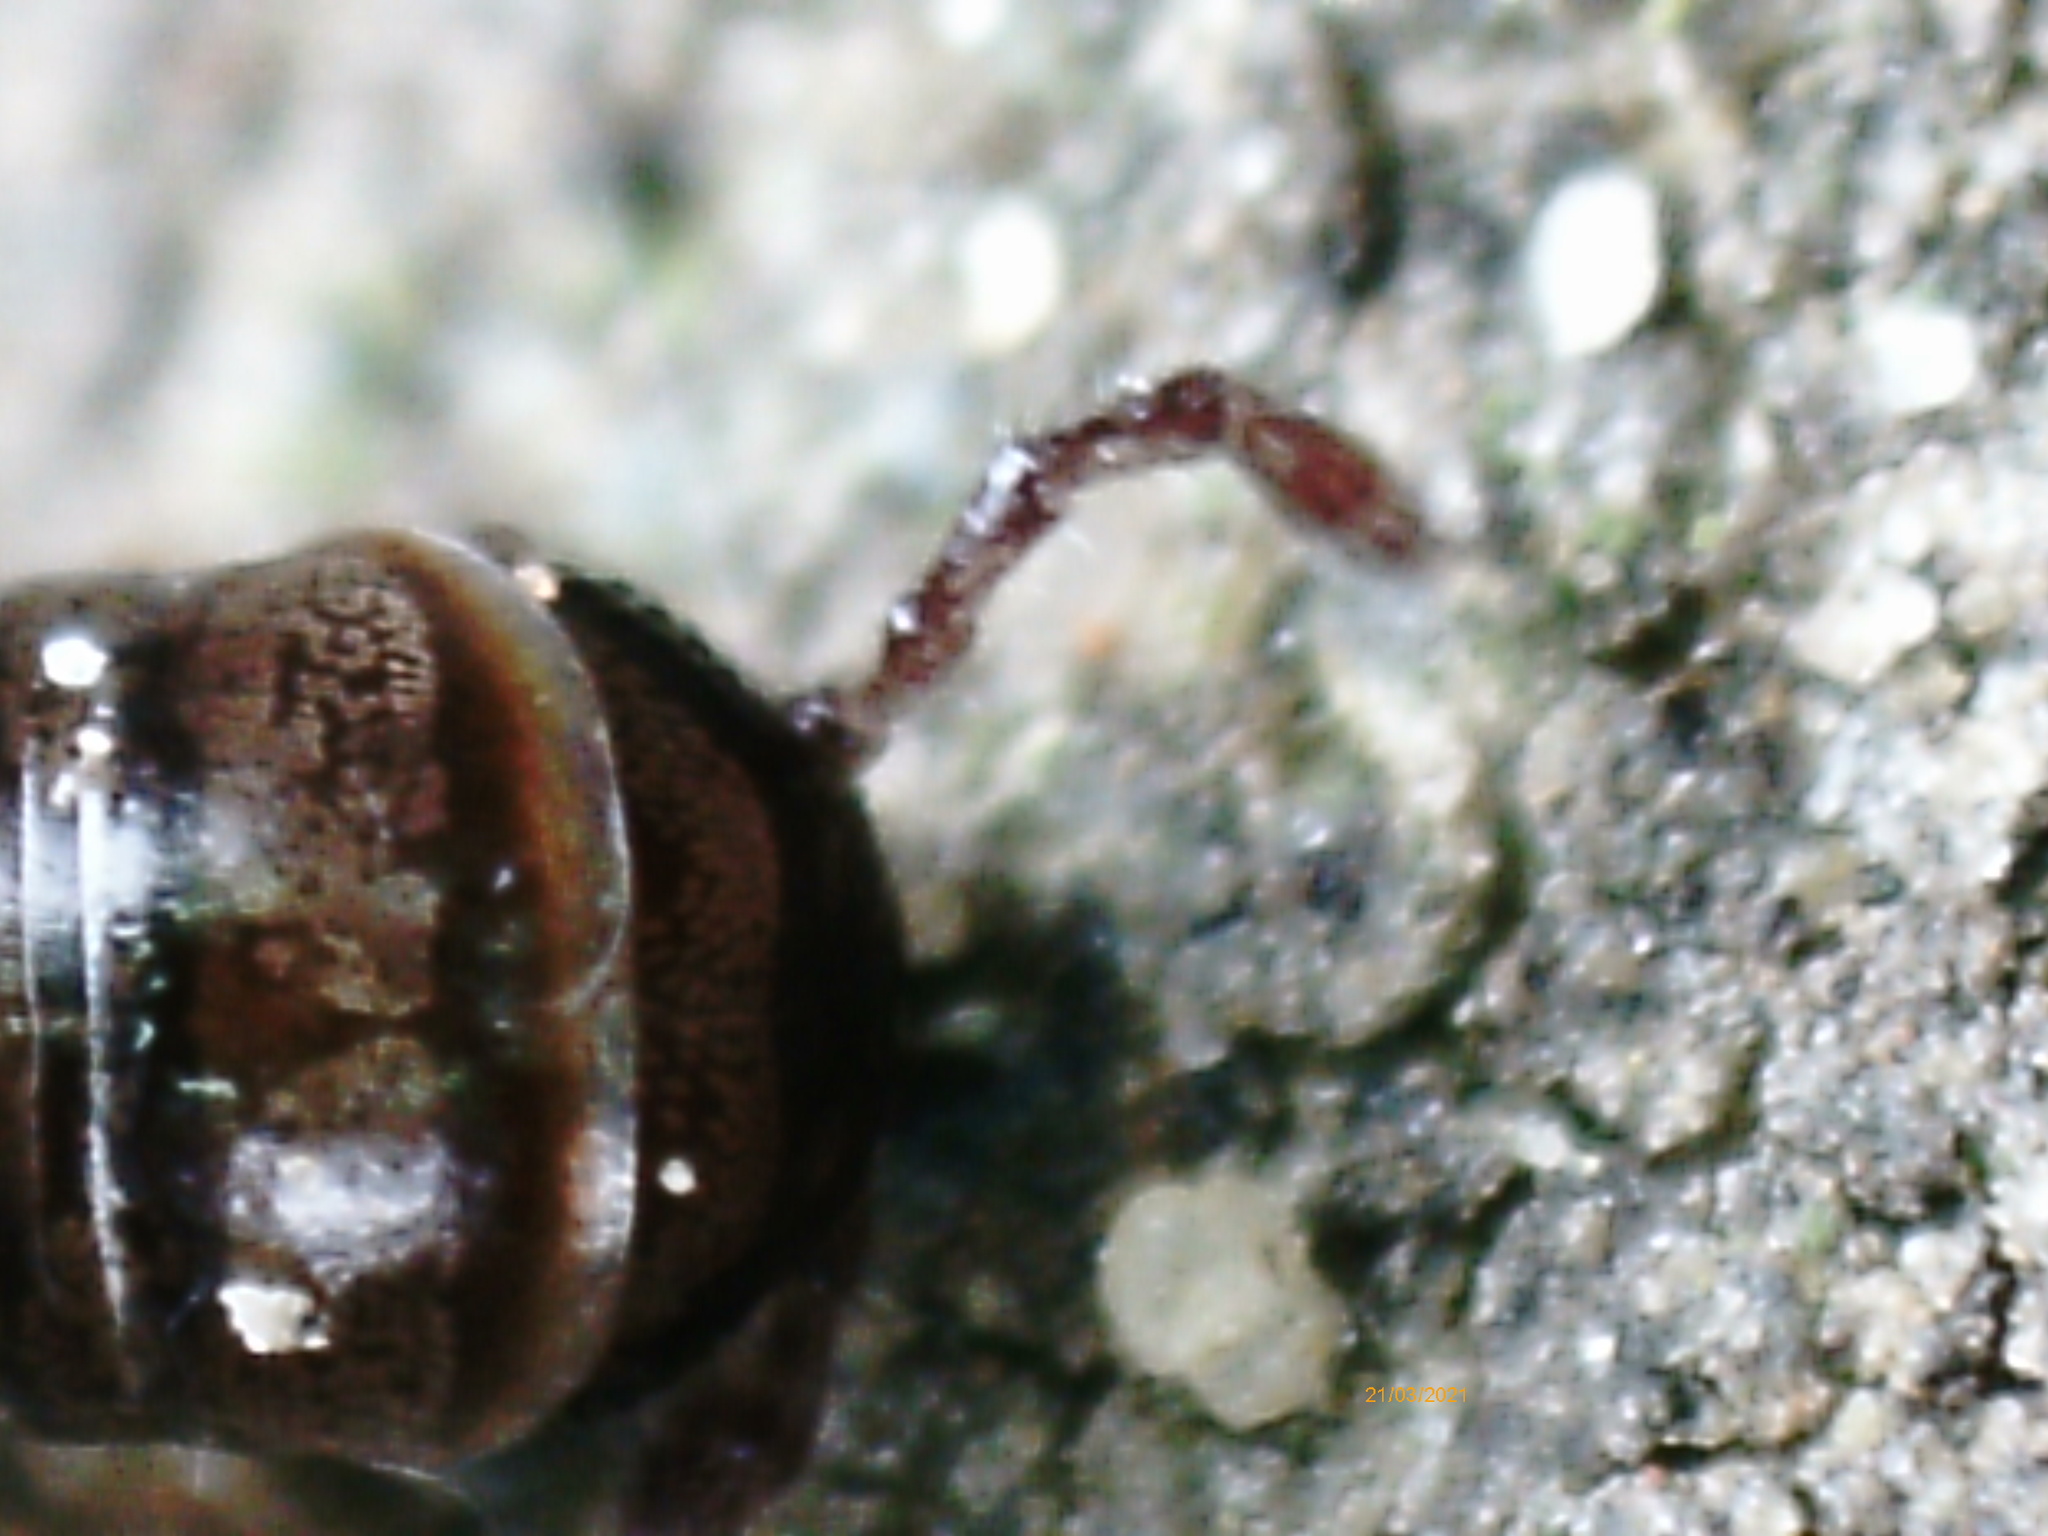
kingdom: Animalia
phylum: Arthropoda
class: Diplopoda
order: Julida
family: Julidae
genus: Tachypodoiulus
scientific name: Tachypodoiulus niger
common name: White-legged snake millipede
